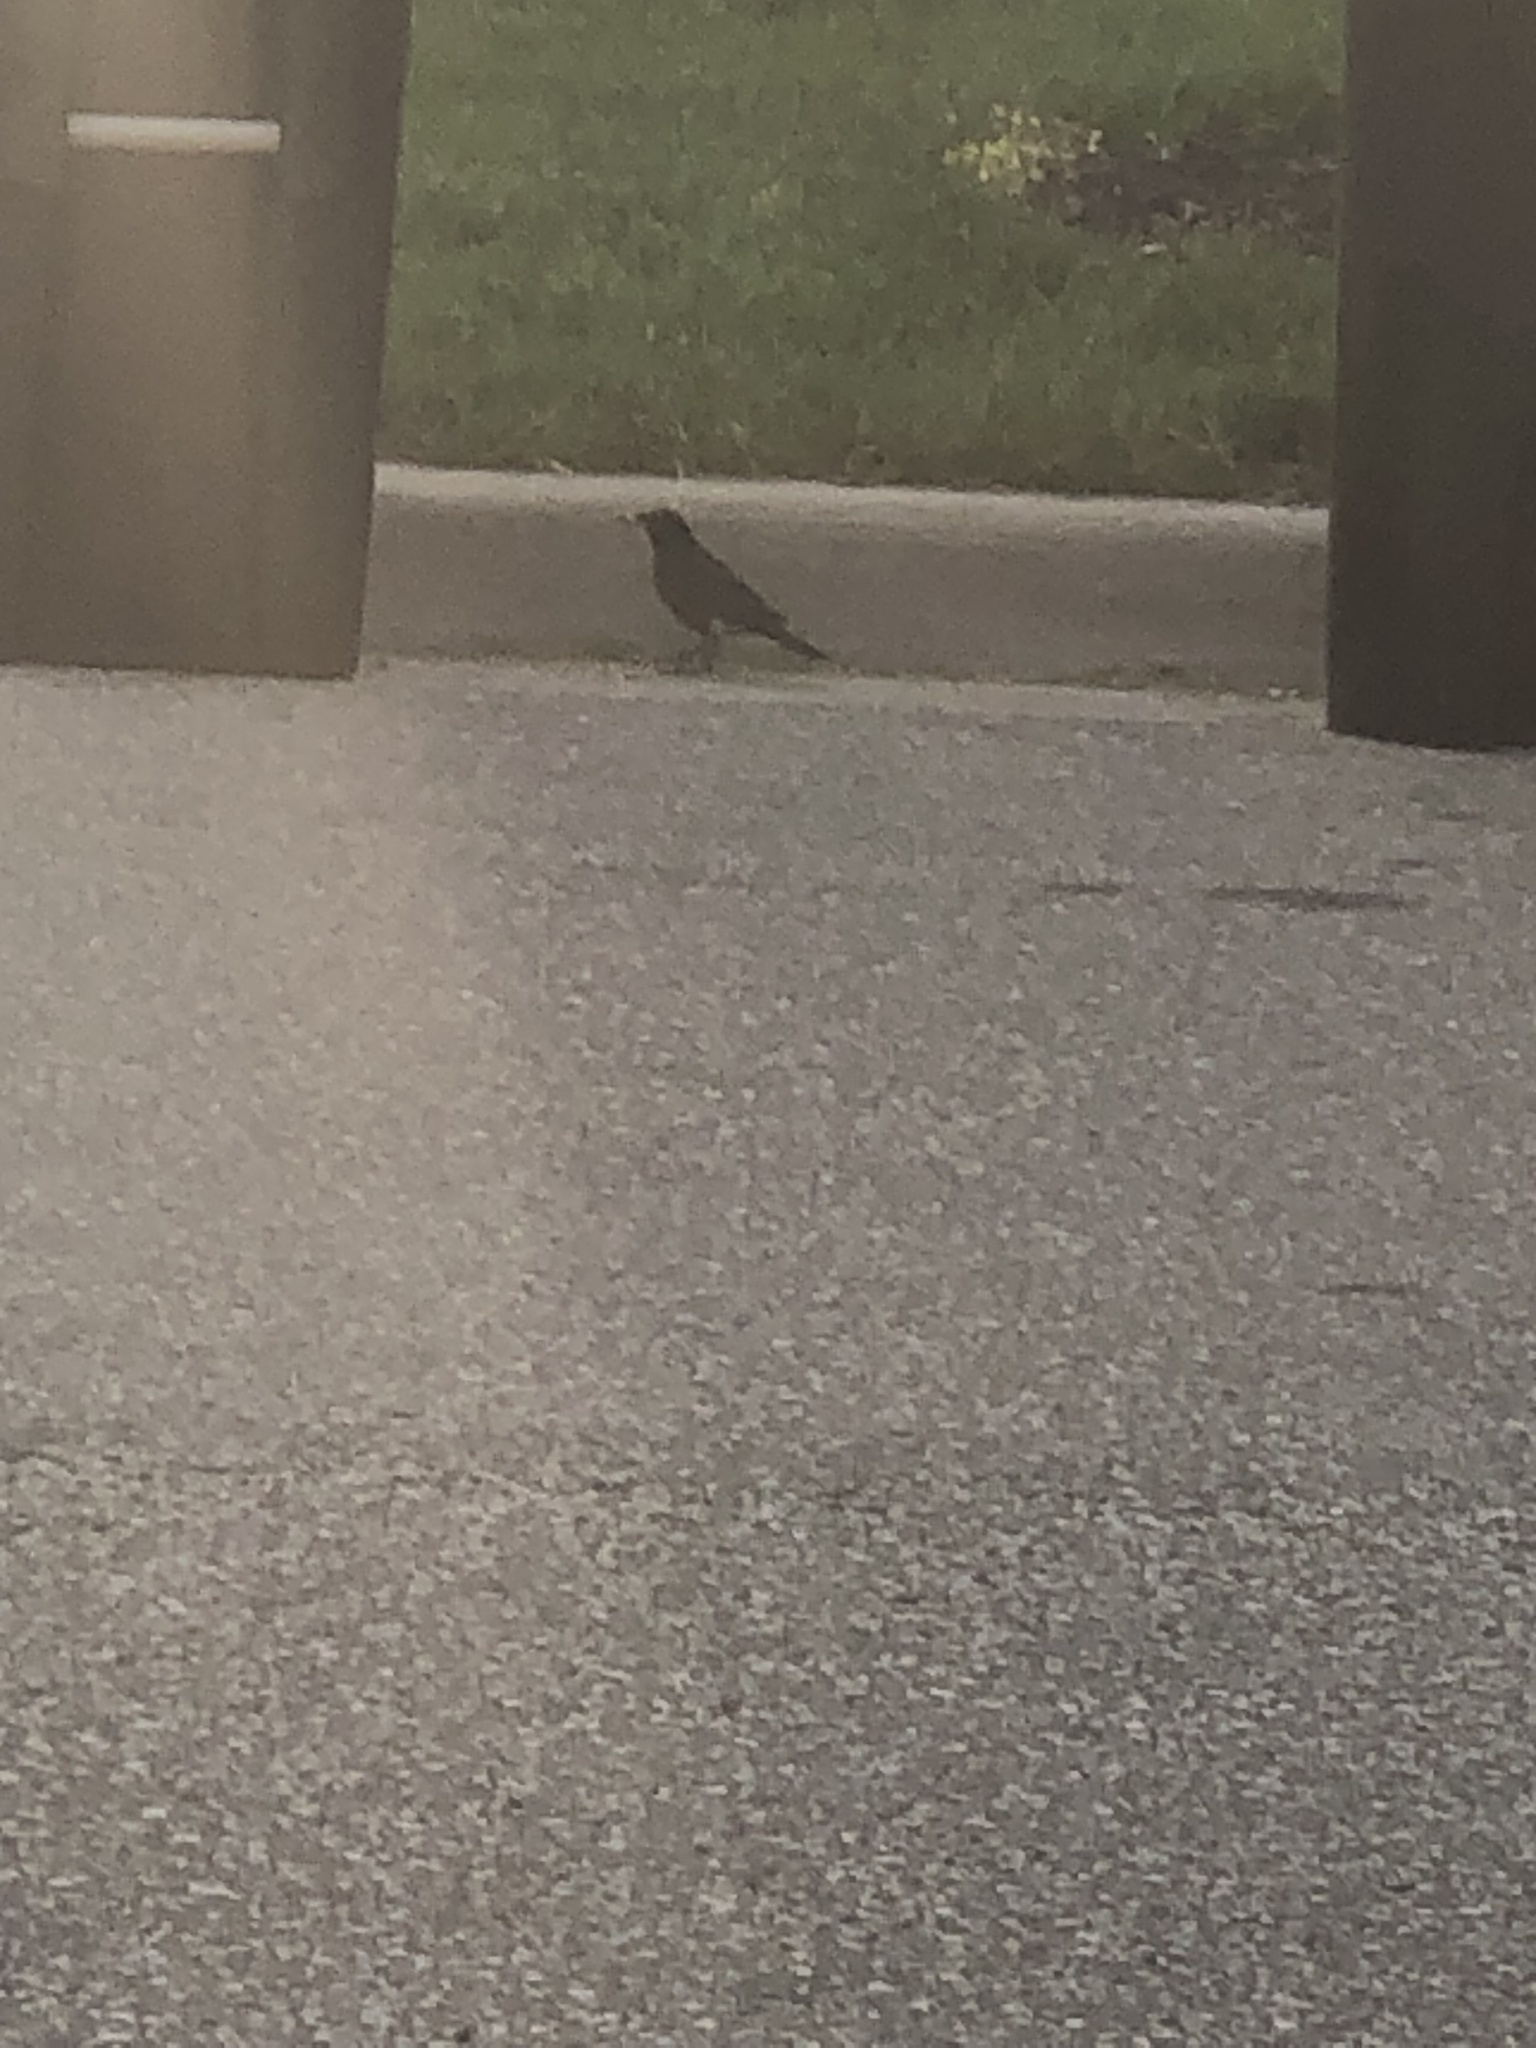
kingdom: Animalia
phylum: Chordata
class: Aves
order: Passeriformes
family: Turdidae
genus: Turdus
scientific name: Turdus migratorius
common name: American robin
